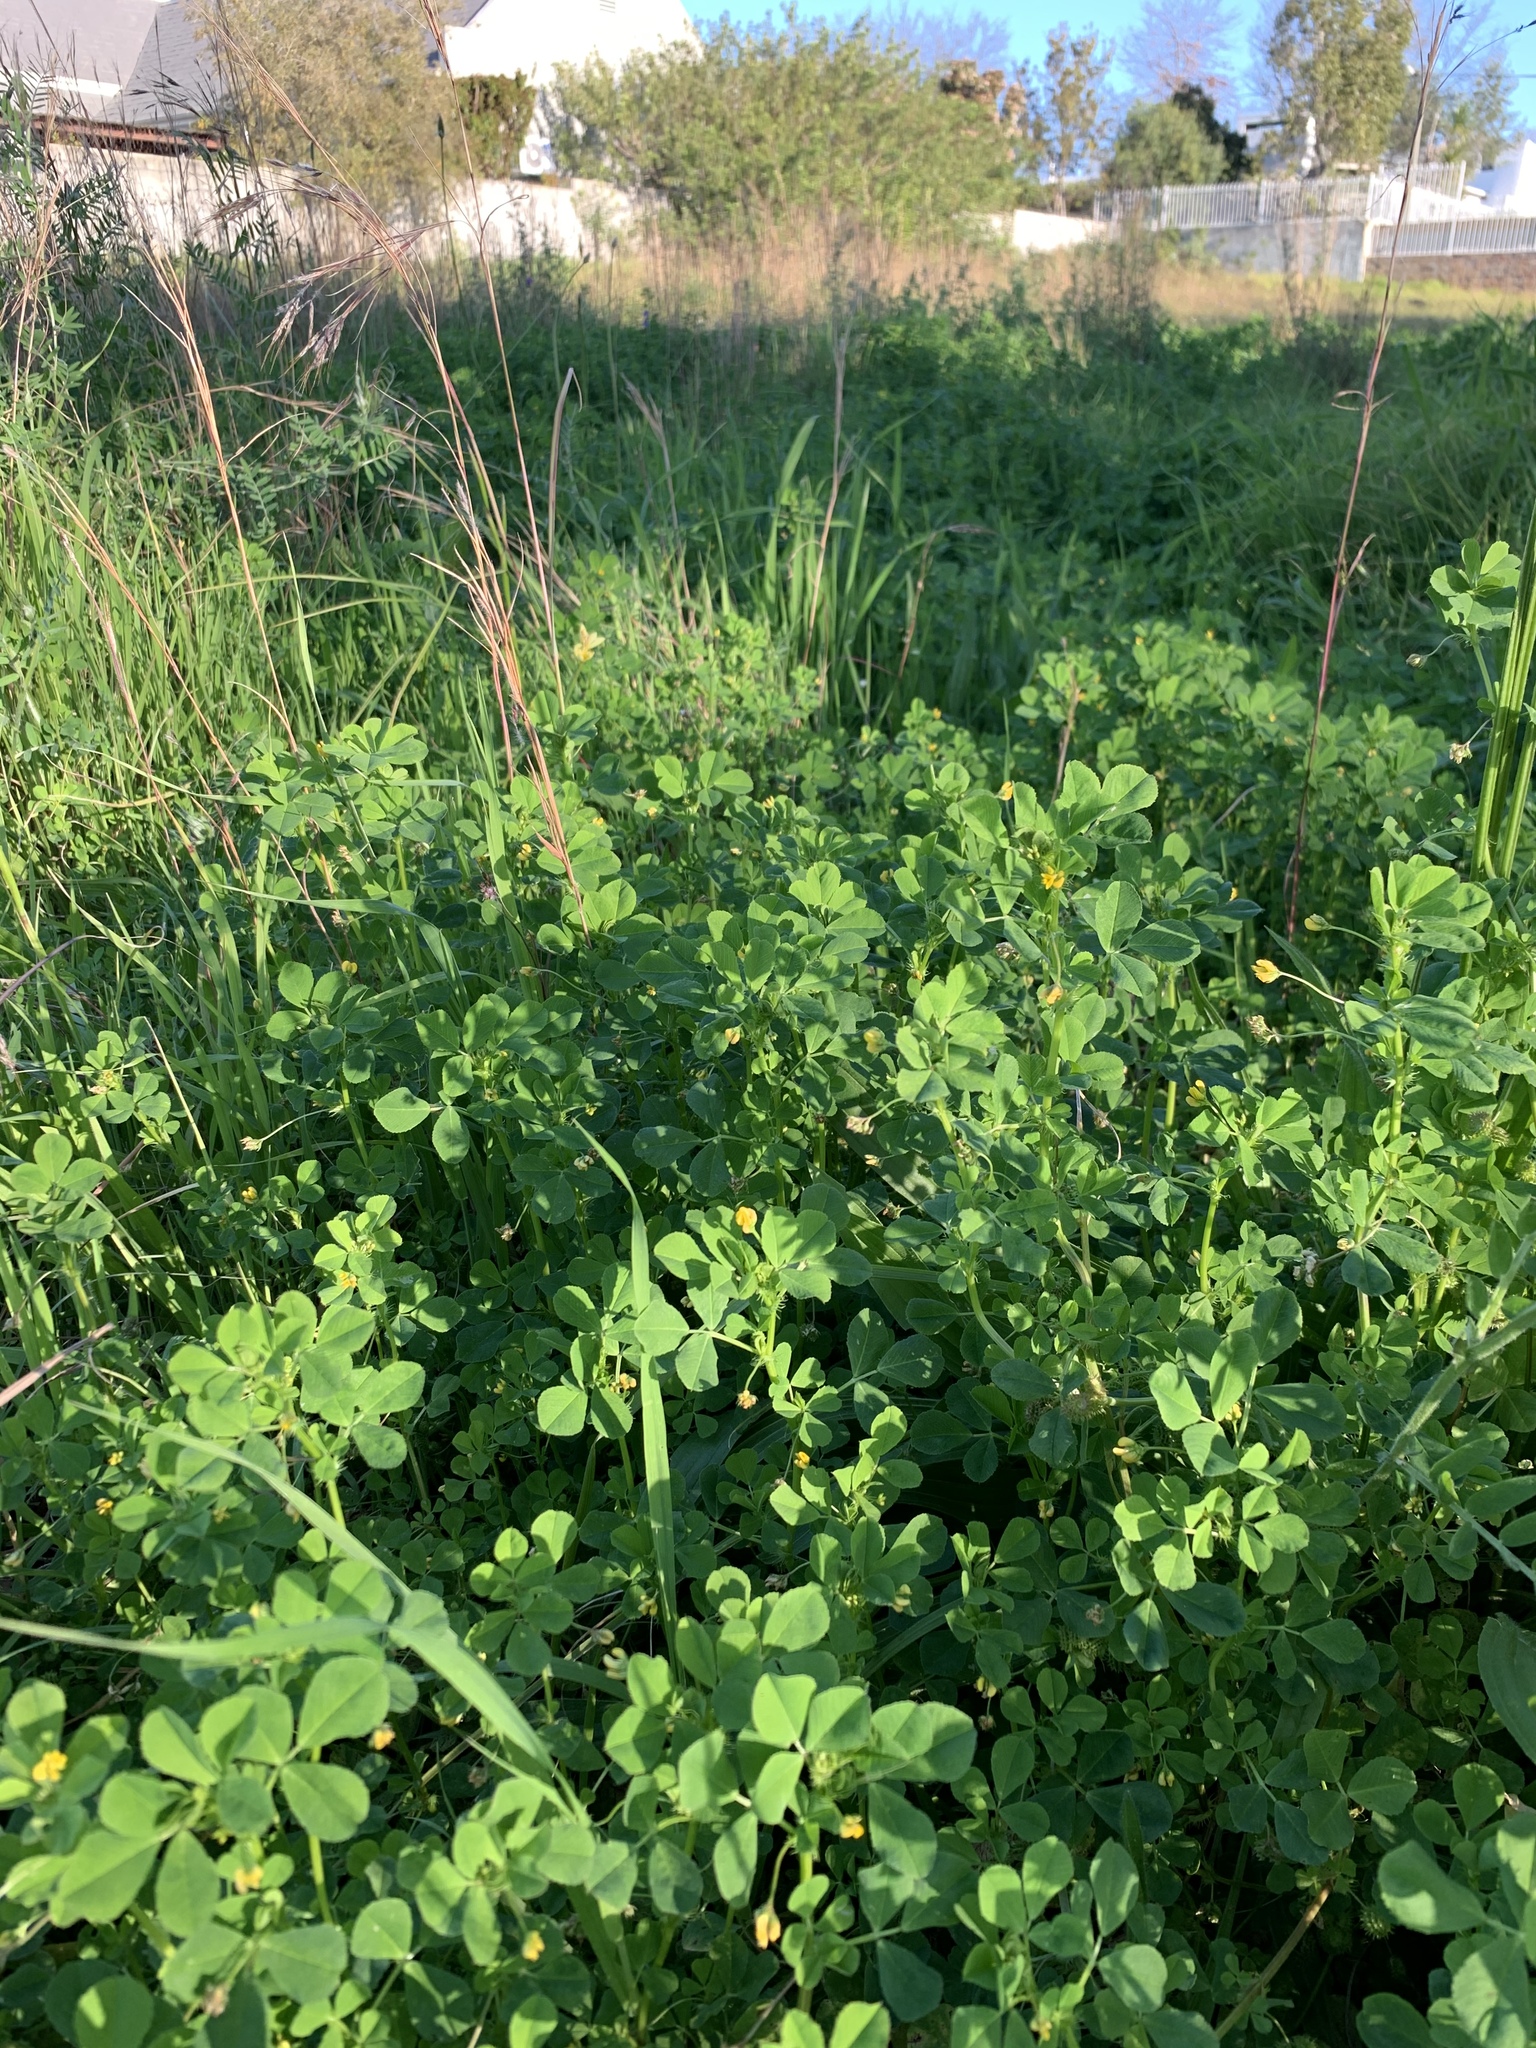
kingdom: Plantae
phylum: Tracheophyta
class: Magnoliopsida
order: Fabales
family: Fabaceae
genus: Medicago
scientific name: Medicago polymorpha
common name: Burclover
